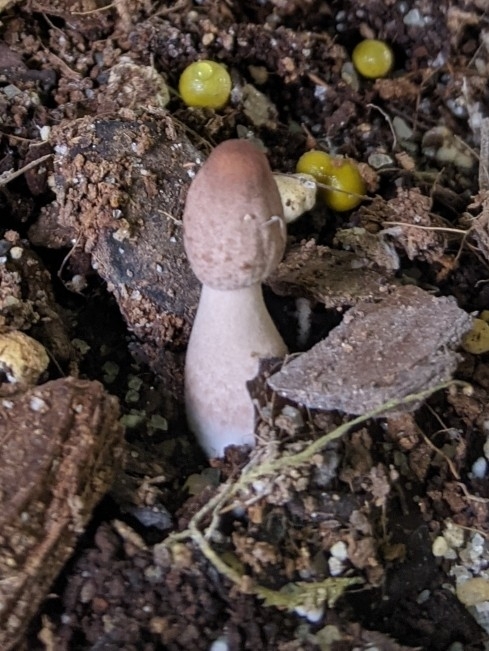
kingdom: Fungi
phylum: Basidiomycota
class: Agaricomycetes
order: Agaricales
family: Agaricaceae
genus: Leucocoprinus
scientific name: Leucocoprinus ianthinus
